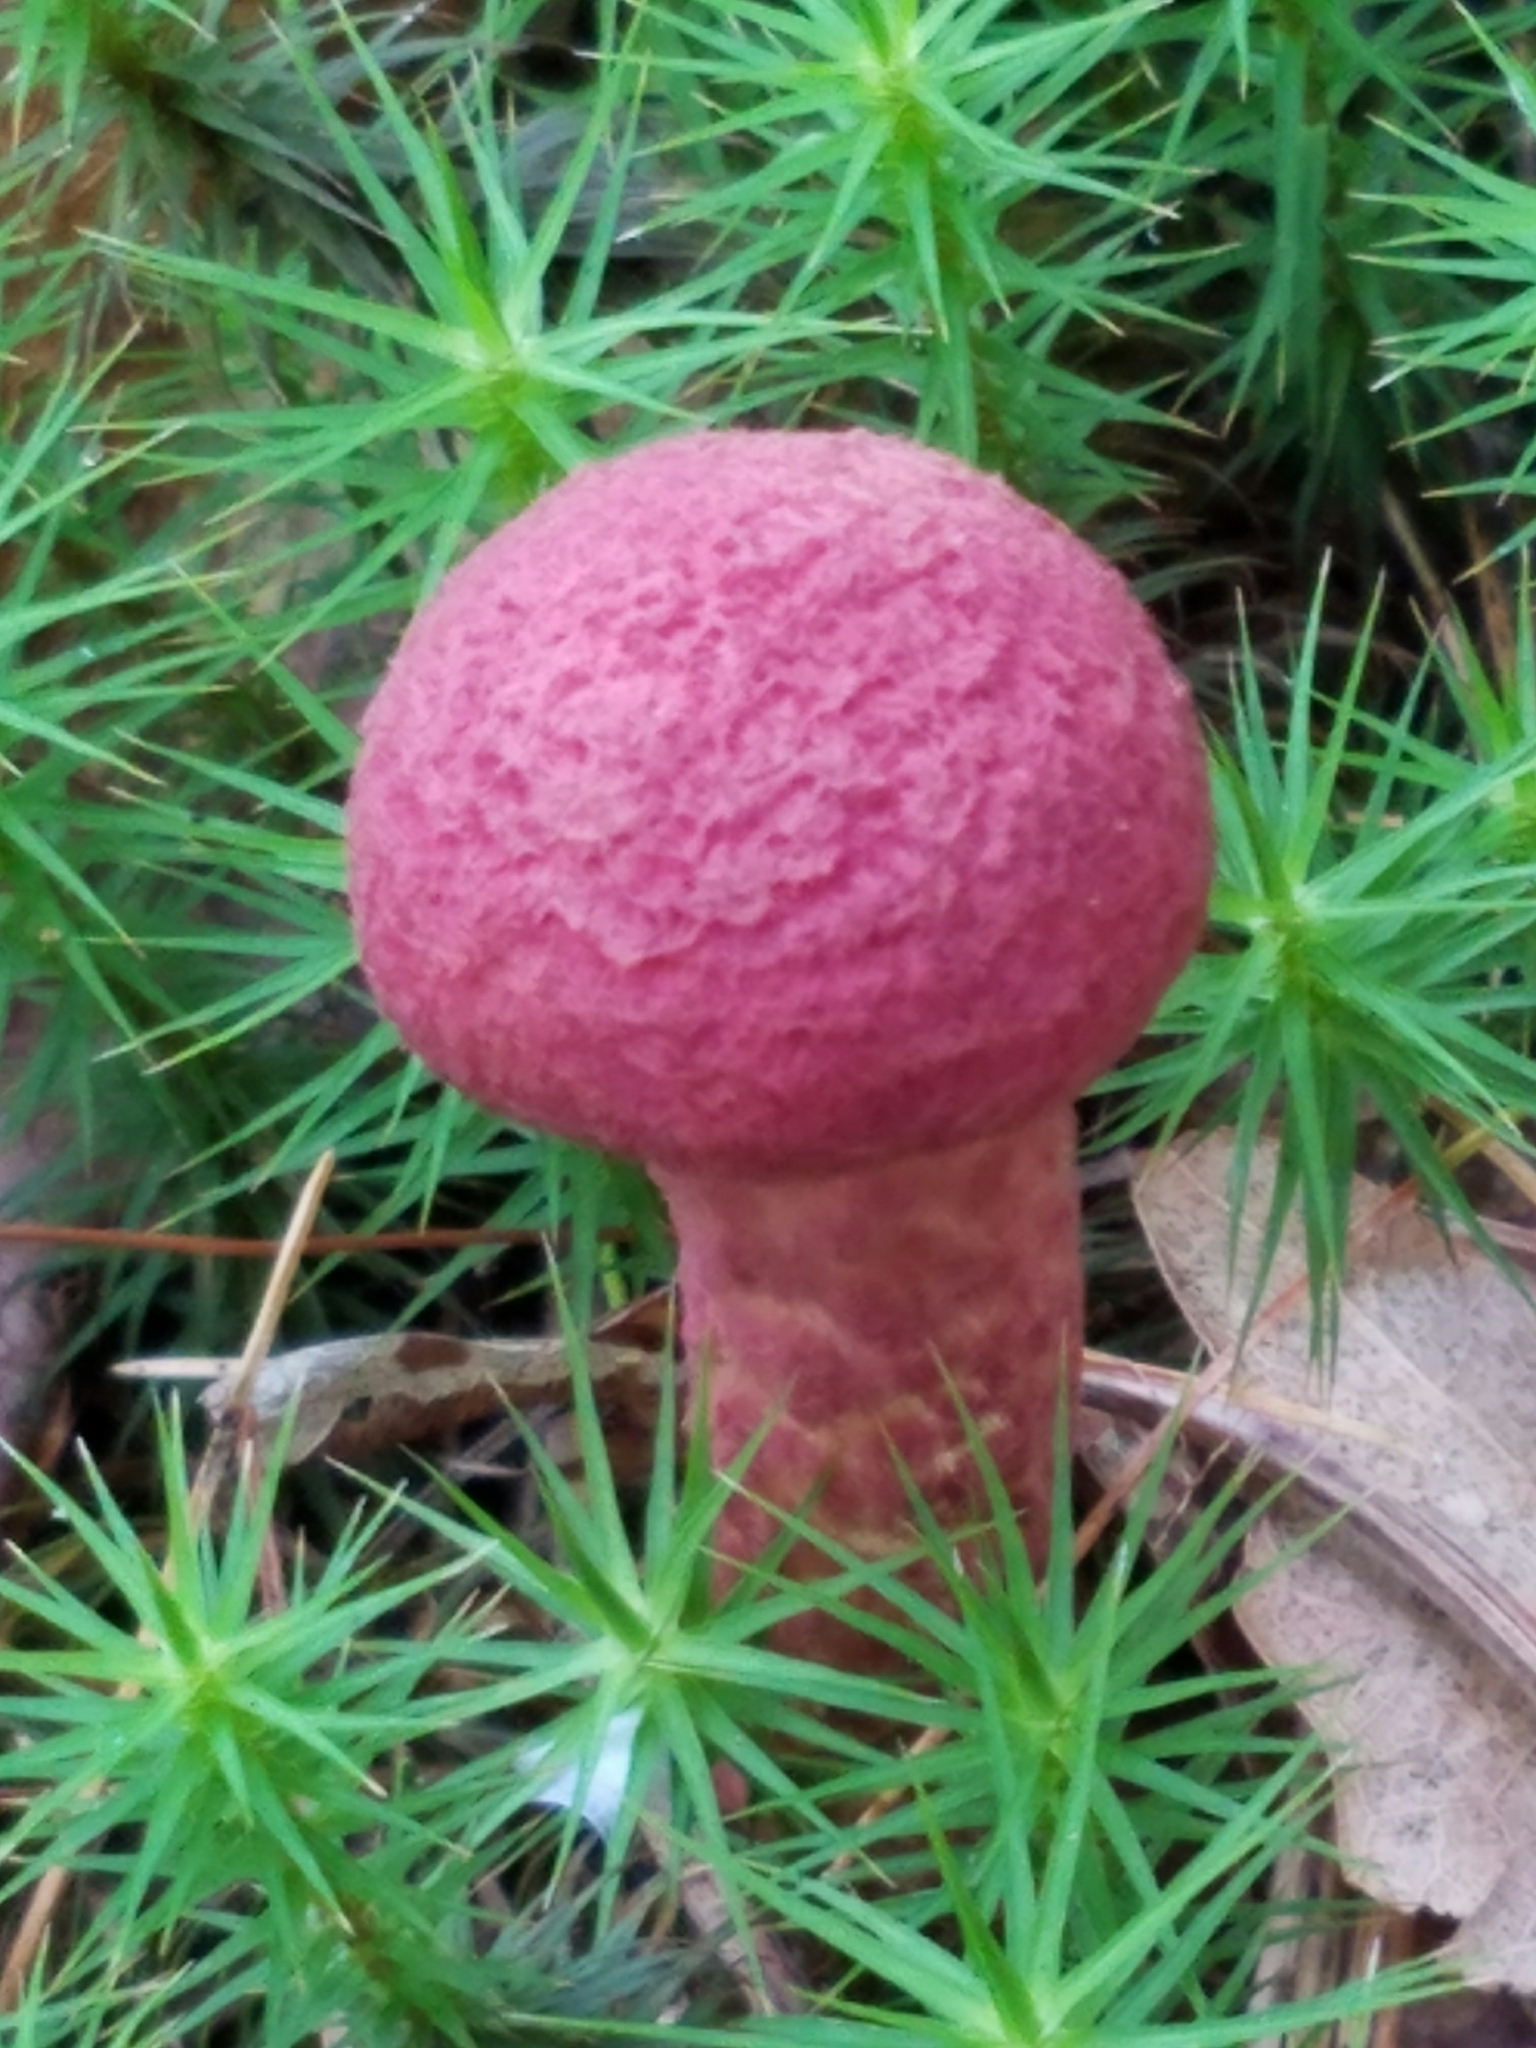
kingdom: Fungi
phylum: Basidiomycota
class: Agaricomycetes
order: Boletales
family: Suillaceae
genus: Suillus
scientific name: Suillus spraguei
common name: Painted suillus
